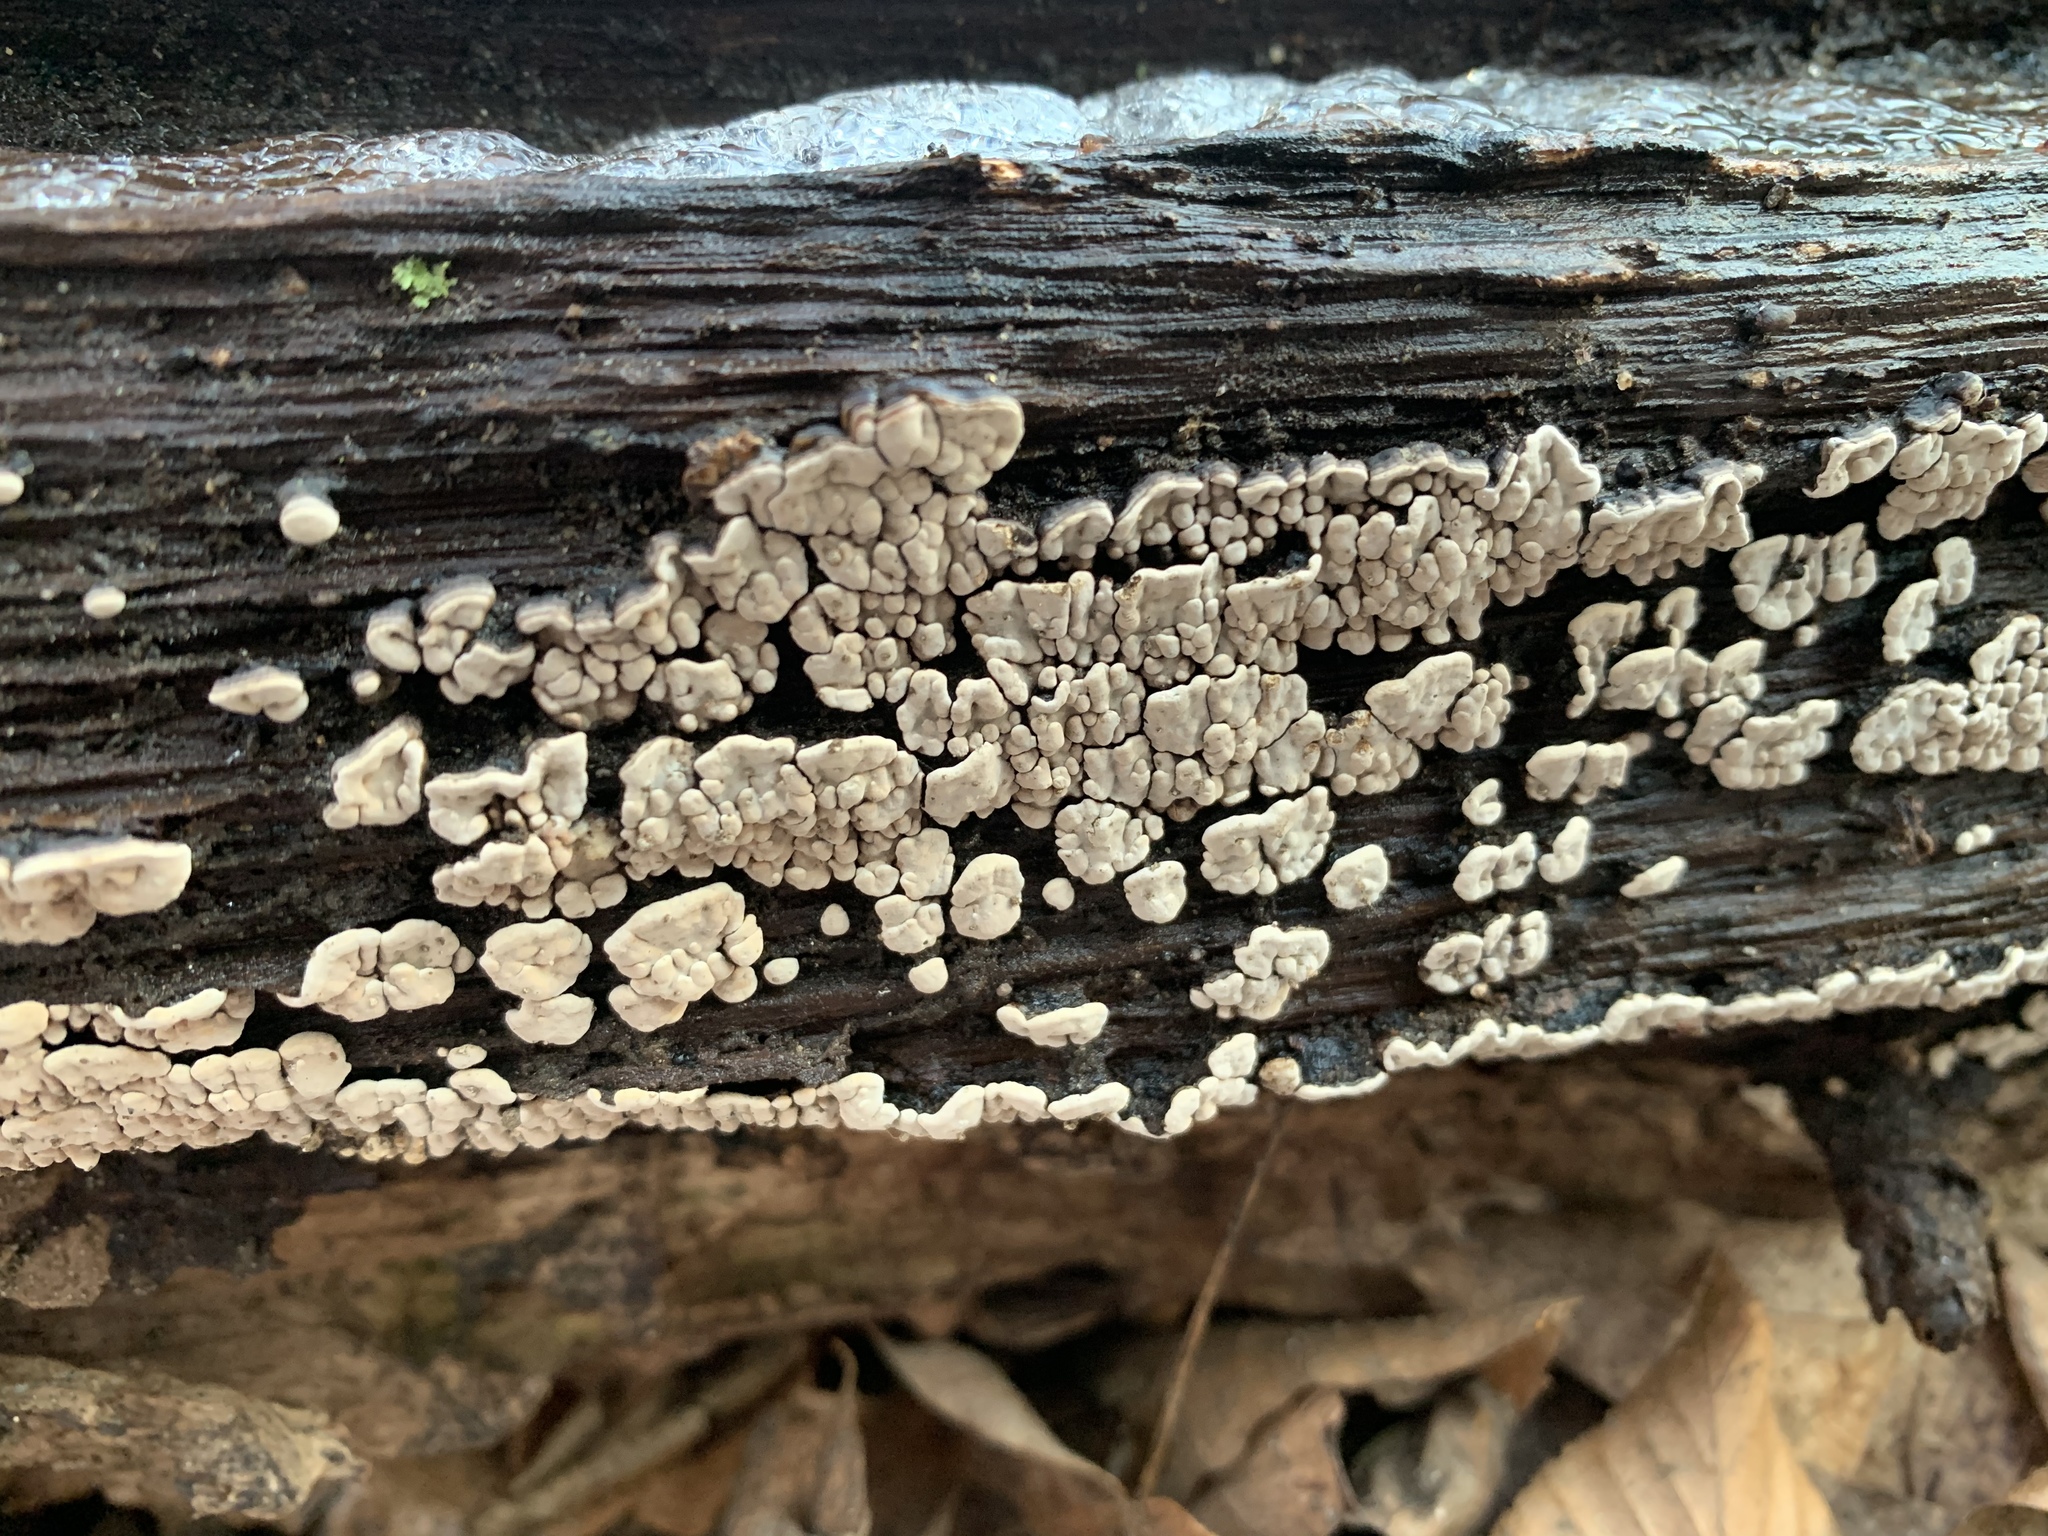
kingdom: Fungi
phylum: Basidiomycota
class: Agaricomycetes
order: Russulales
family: Stereaceae
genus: Xylobolus
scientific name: Xylobolus frustulatus
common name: Ceramic parchment
